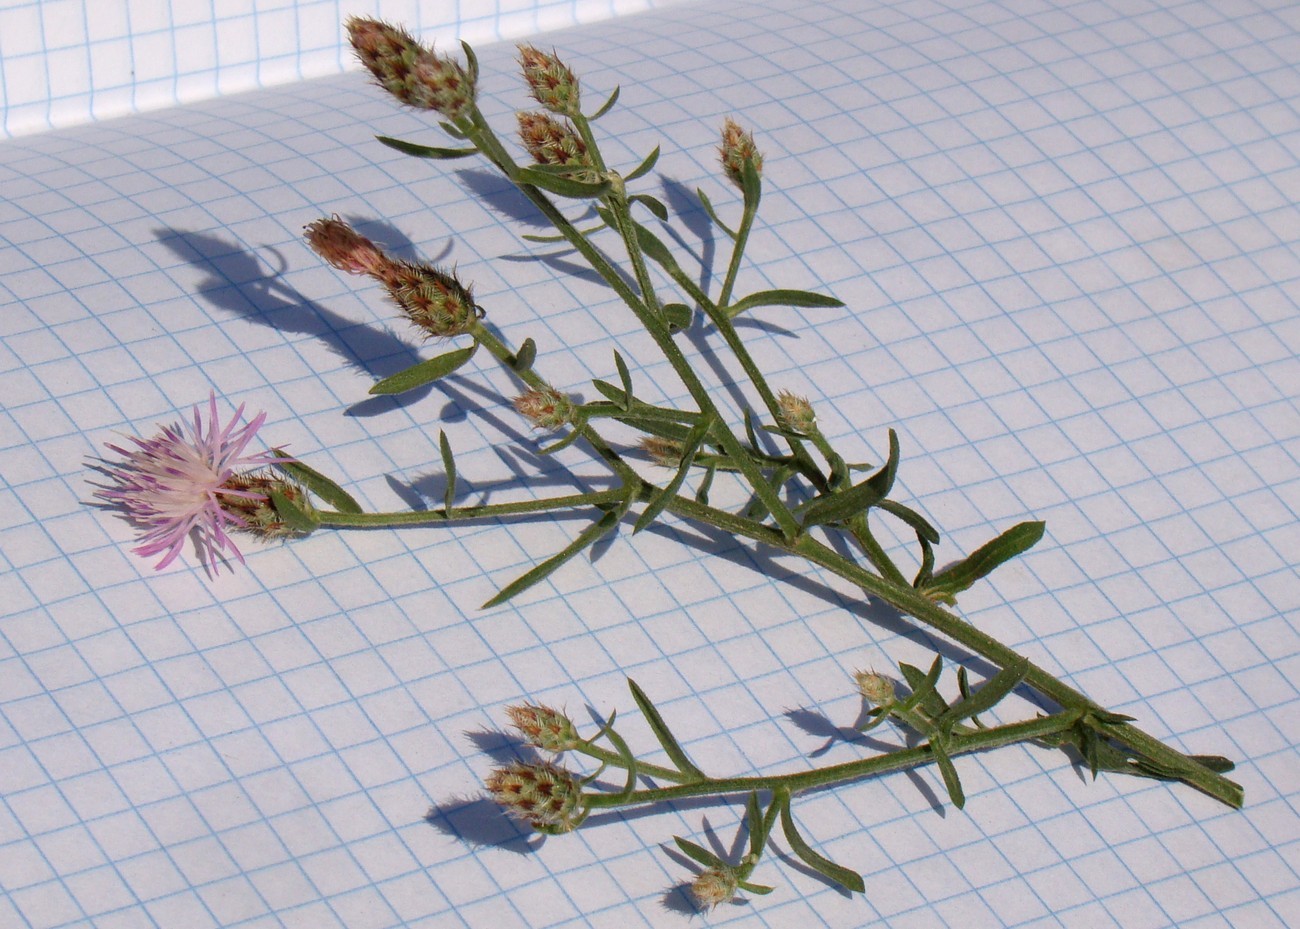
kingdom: Plantae
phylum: Tracheophyta
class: Magnoliopsida
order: Asterales
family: Asteraceae
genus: Centaurea
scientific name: Centaurea diffusa
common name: Diffuse knapweed
